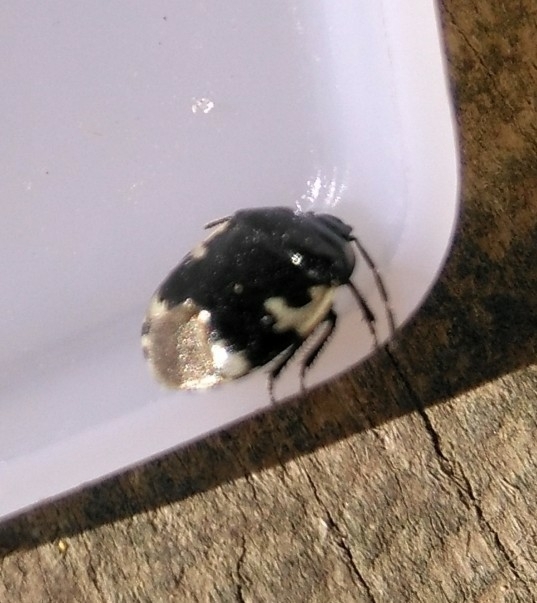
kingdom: Animalia
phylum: Arthropoda
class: Insecta
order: Hemiptera
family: Cydnidae
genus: Tritomegas
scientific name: Tritomegas bicolor
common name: Pied shieldbug
